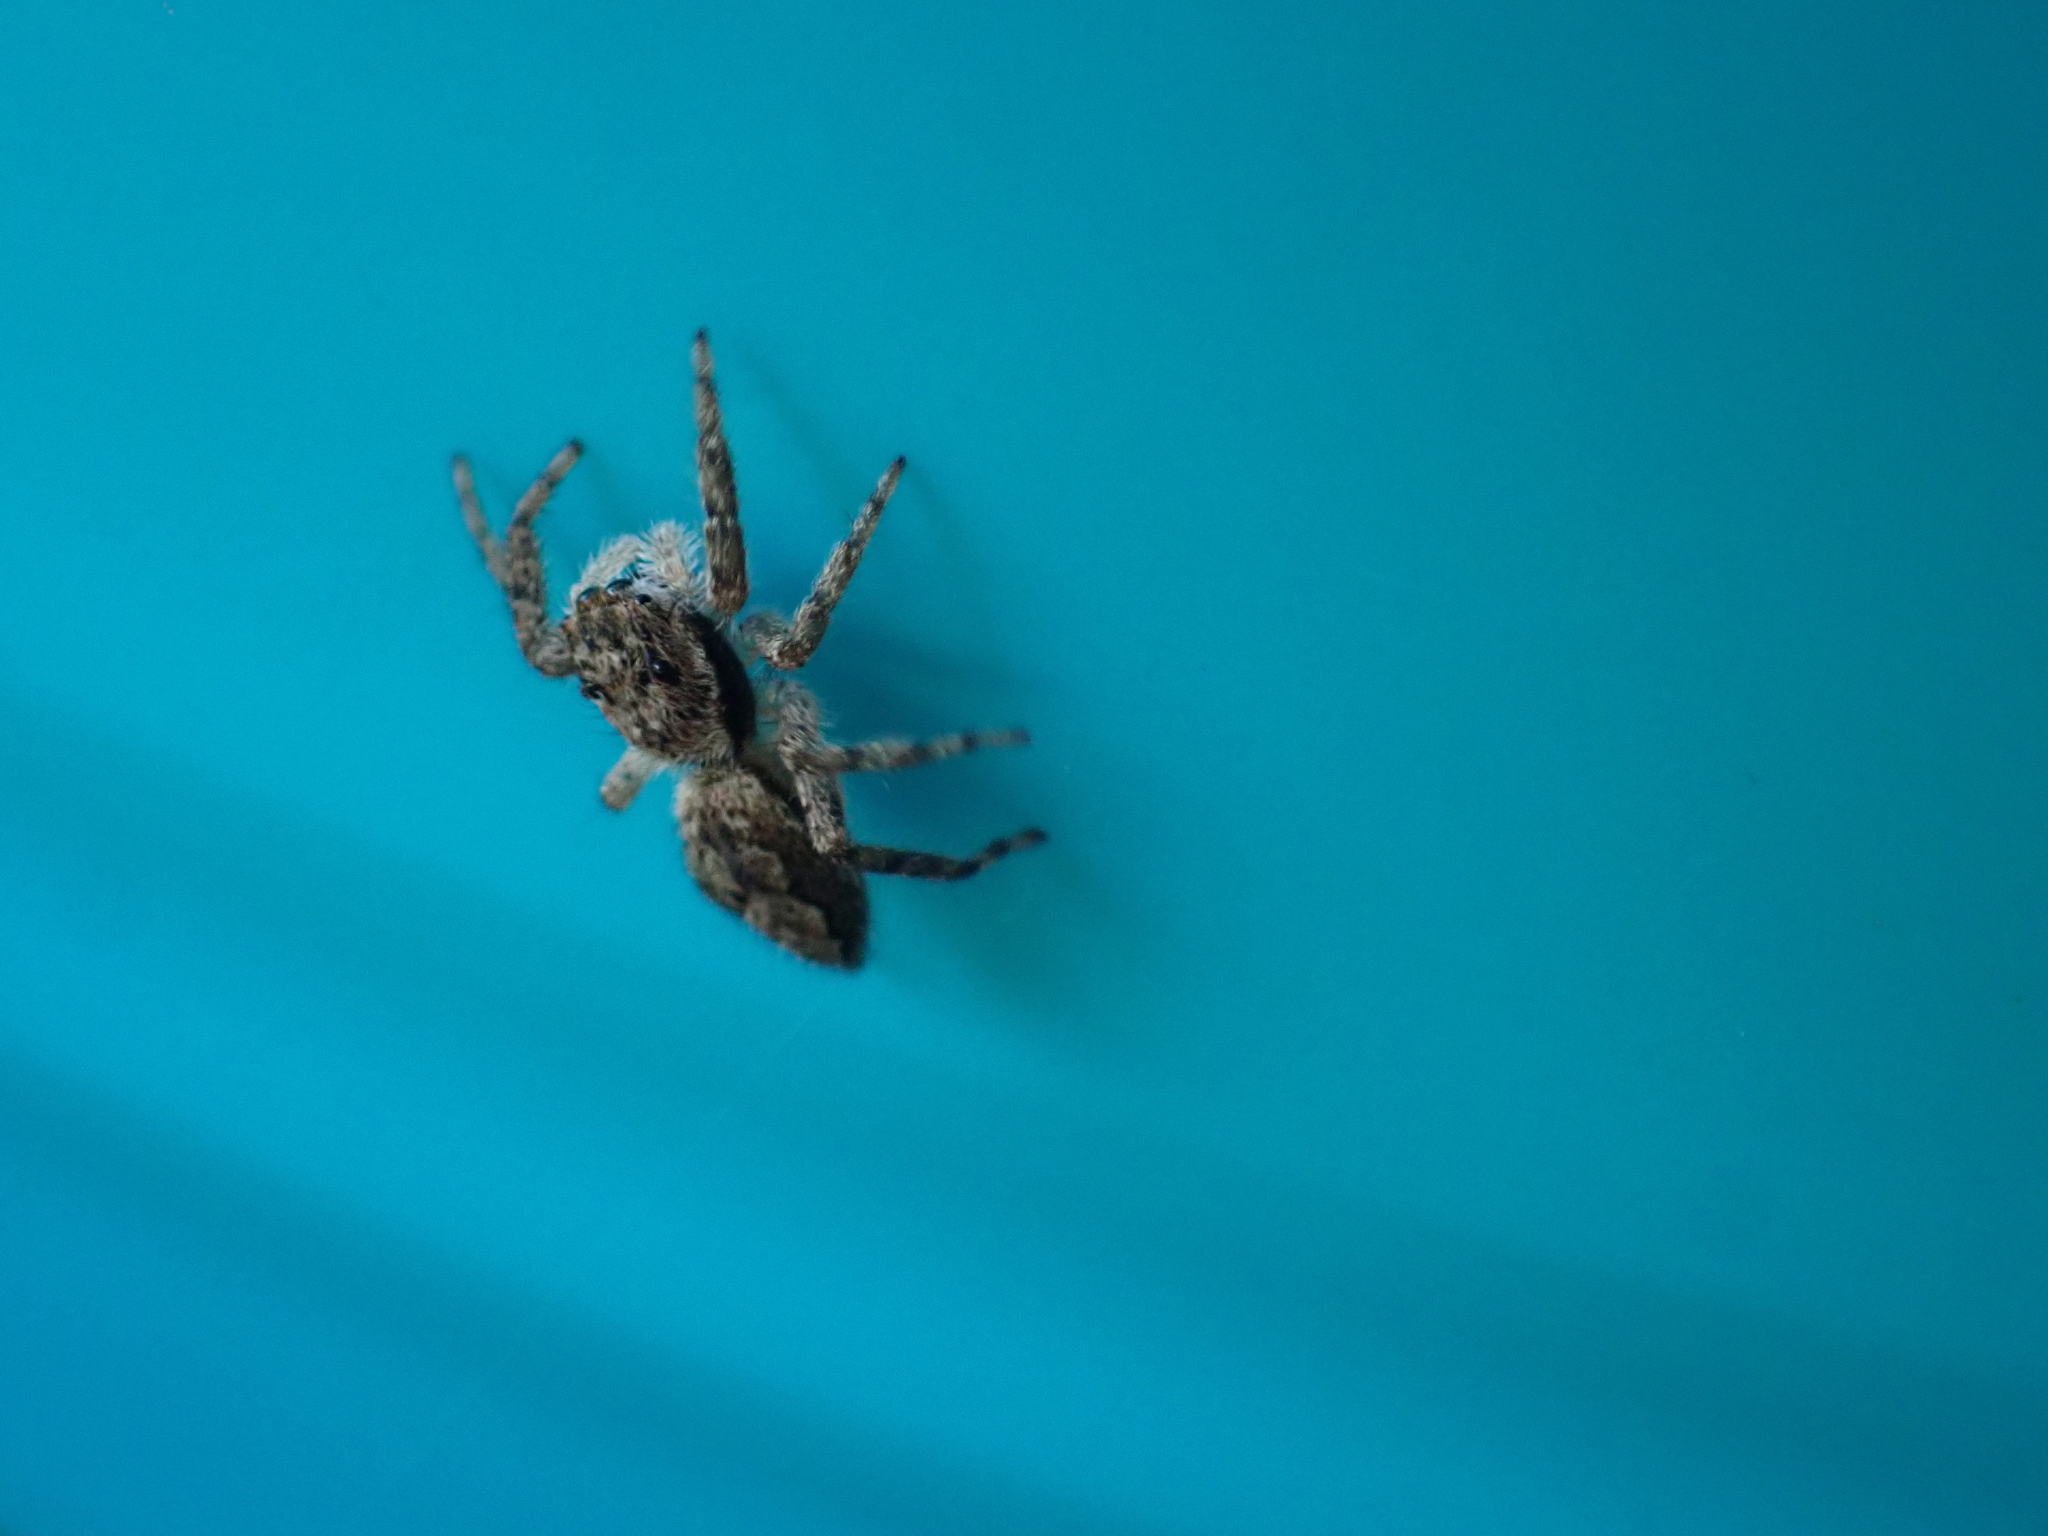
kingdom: Animalia
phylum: Arthropoda
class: Arachnida
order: Araneae
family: Salticidae
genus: Platycryptus
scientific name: Platycryptus undatus
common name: Tan jumping spider
